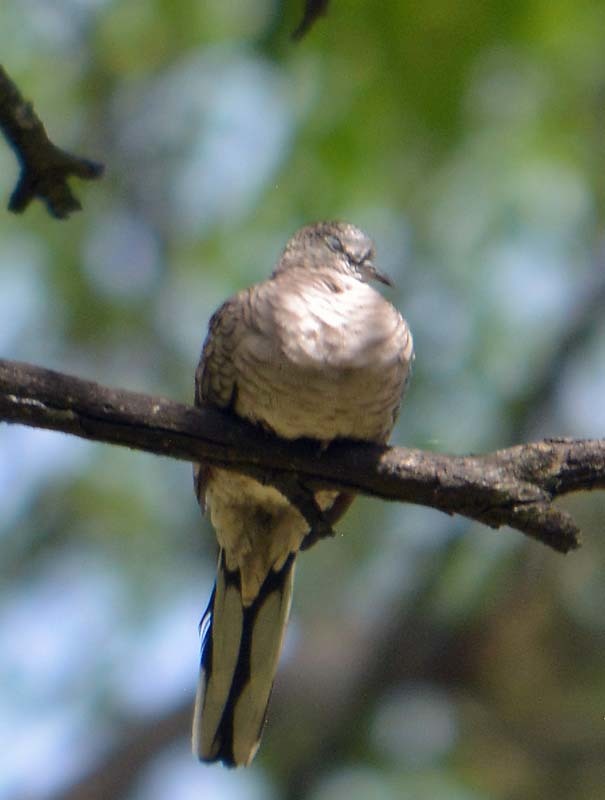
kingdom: Animalia
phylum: Chordata
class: Aves
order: Columbiformes
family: Columbidae
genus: Columbina
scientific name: Columbina inca
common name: Inca dove
